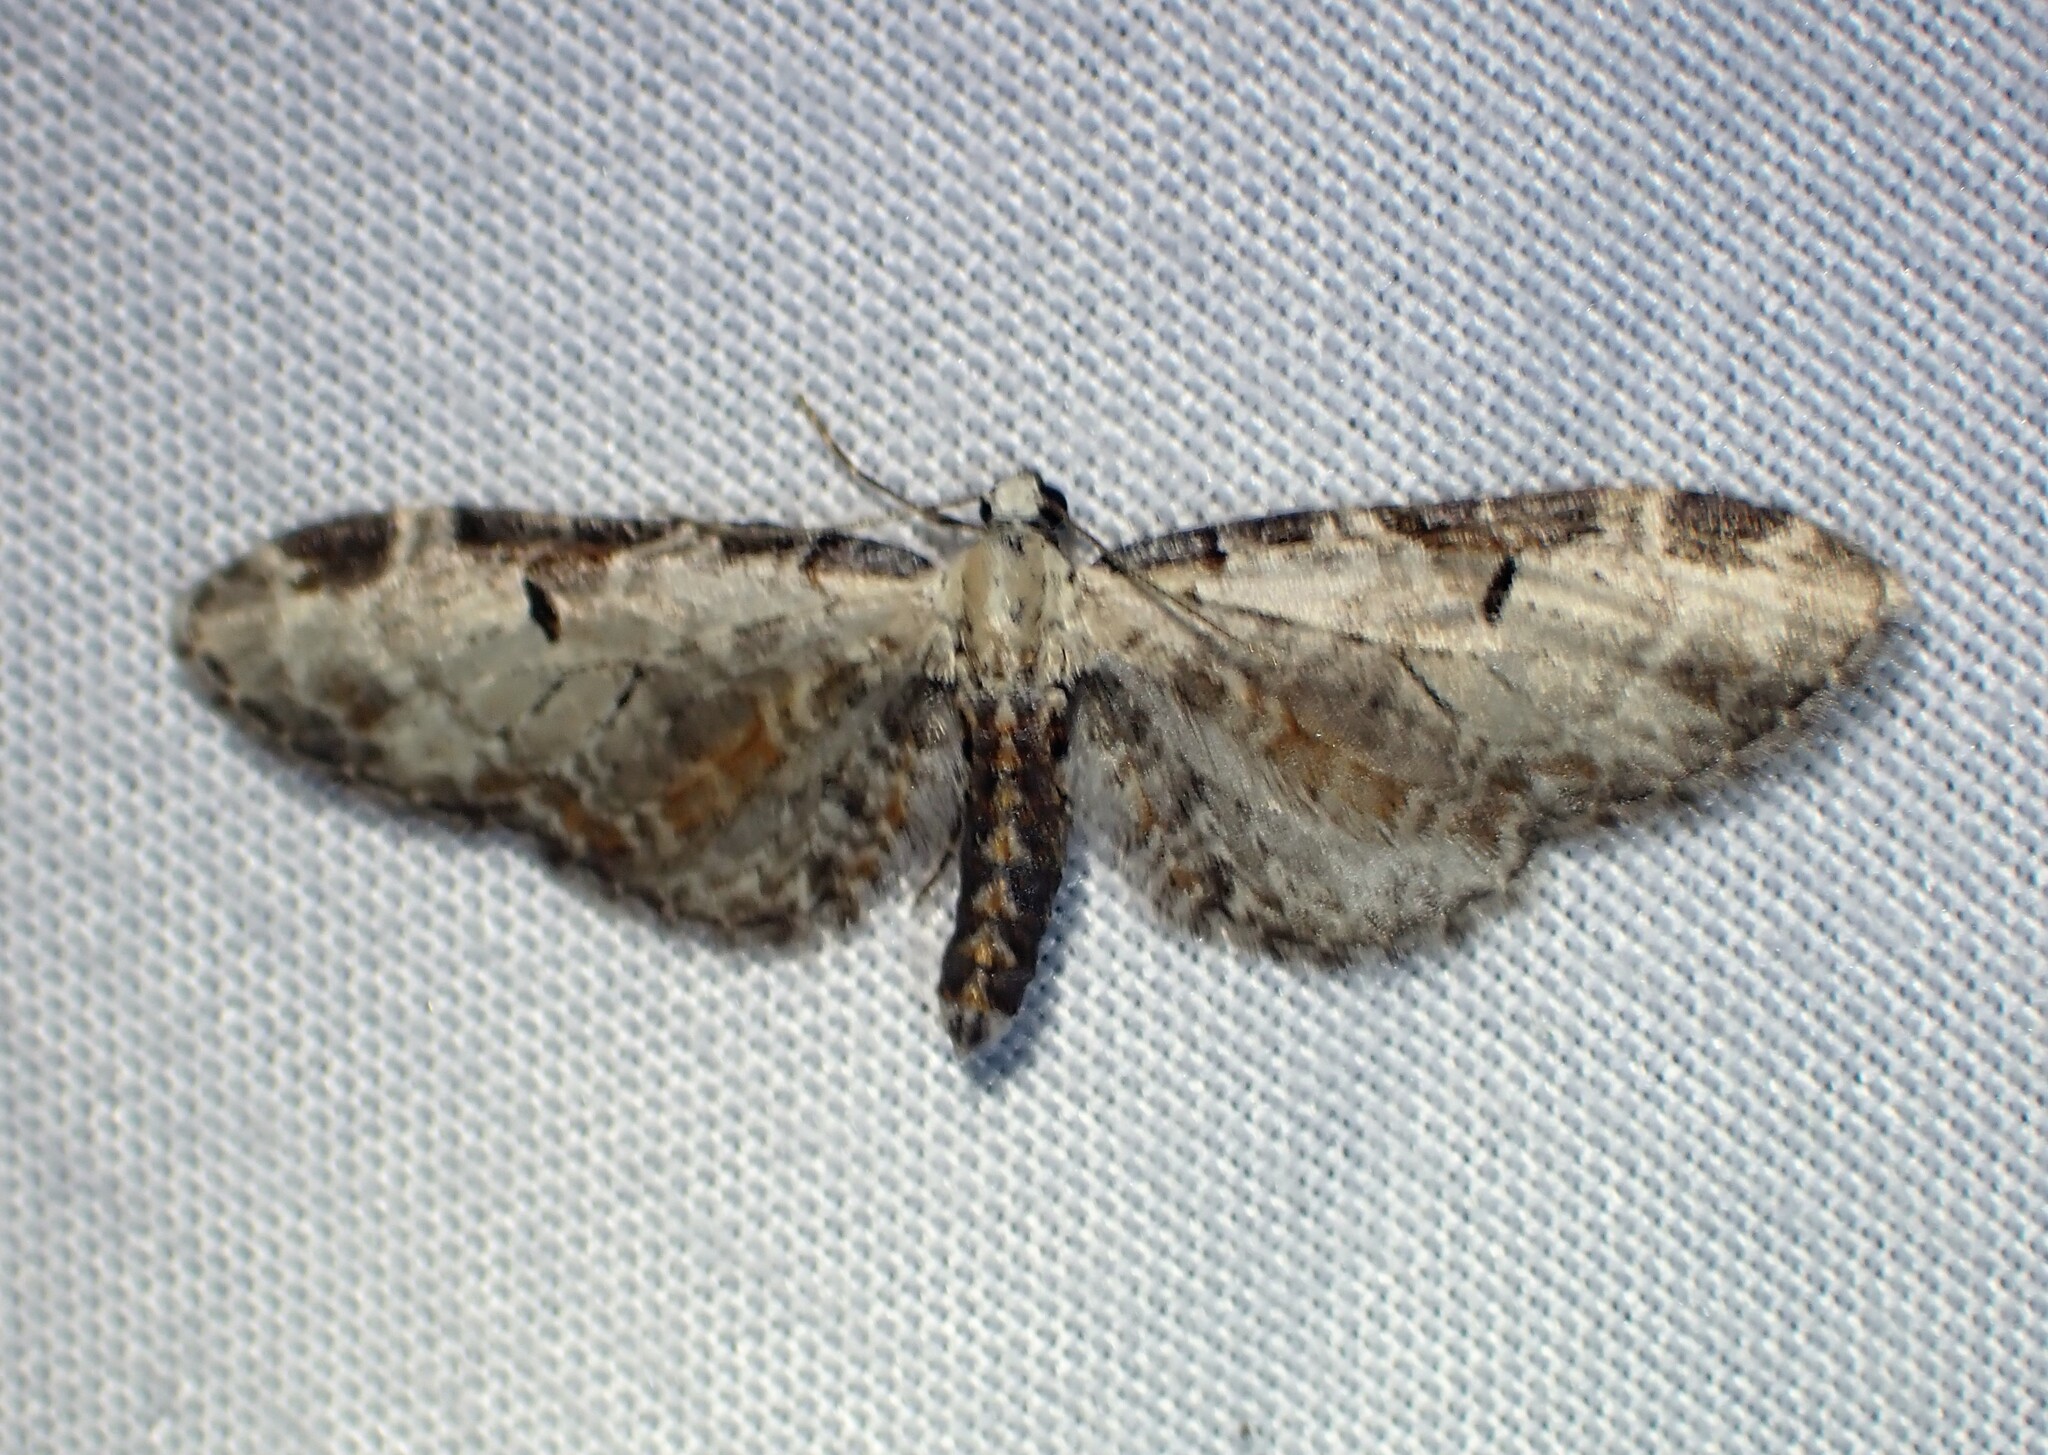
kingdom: Animalia
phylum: Arthropoda
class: Insecta
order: Lepidoptera
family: Geometridae
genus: Eupithecia
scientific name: Eupithecia ravocostaliata
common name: Great varigated pug
